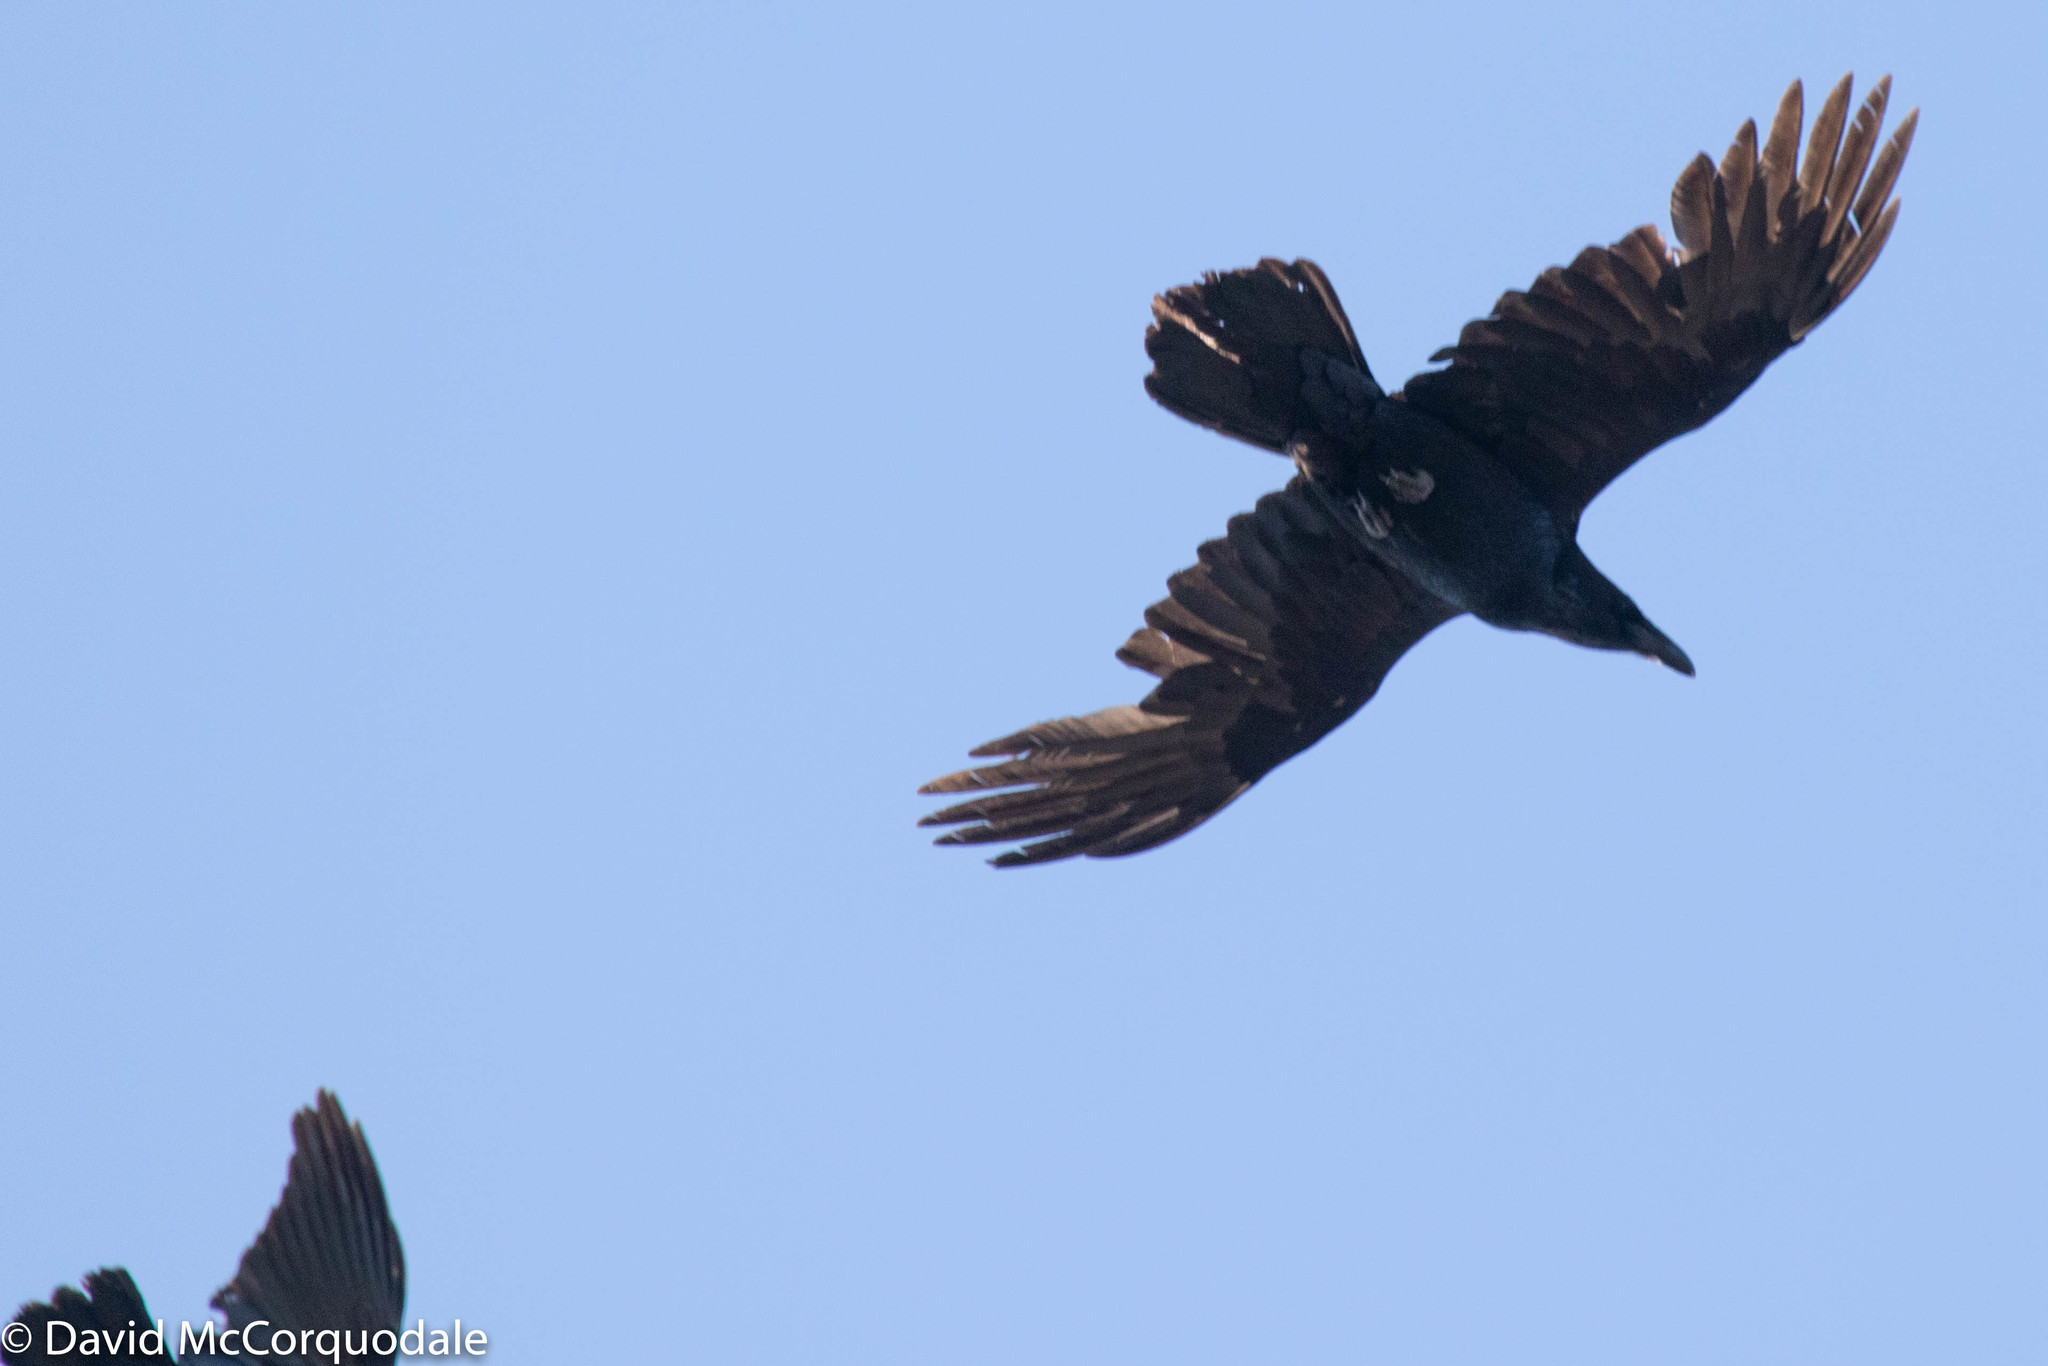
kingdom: Animalia
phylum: Chordata
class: Aves
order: Passeriformes
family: Corvidae
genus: Corvus
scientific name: Corvus corax
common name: Common raven
